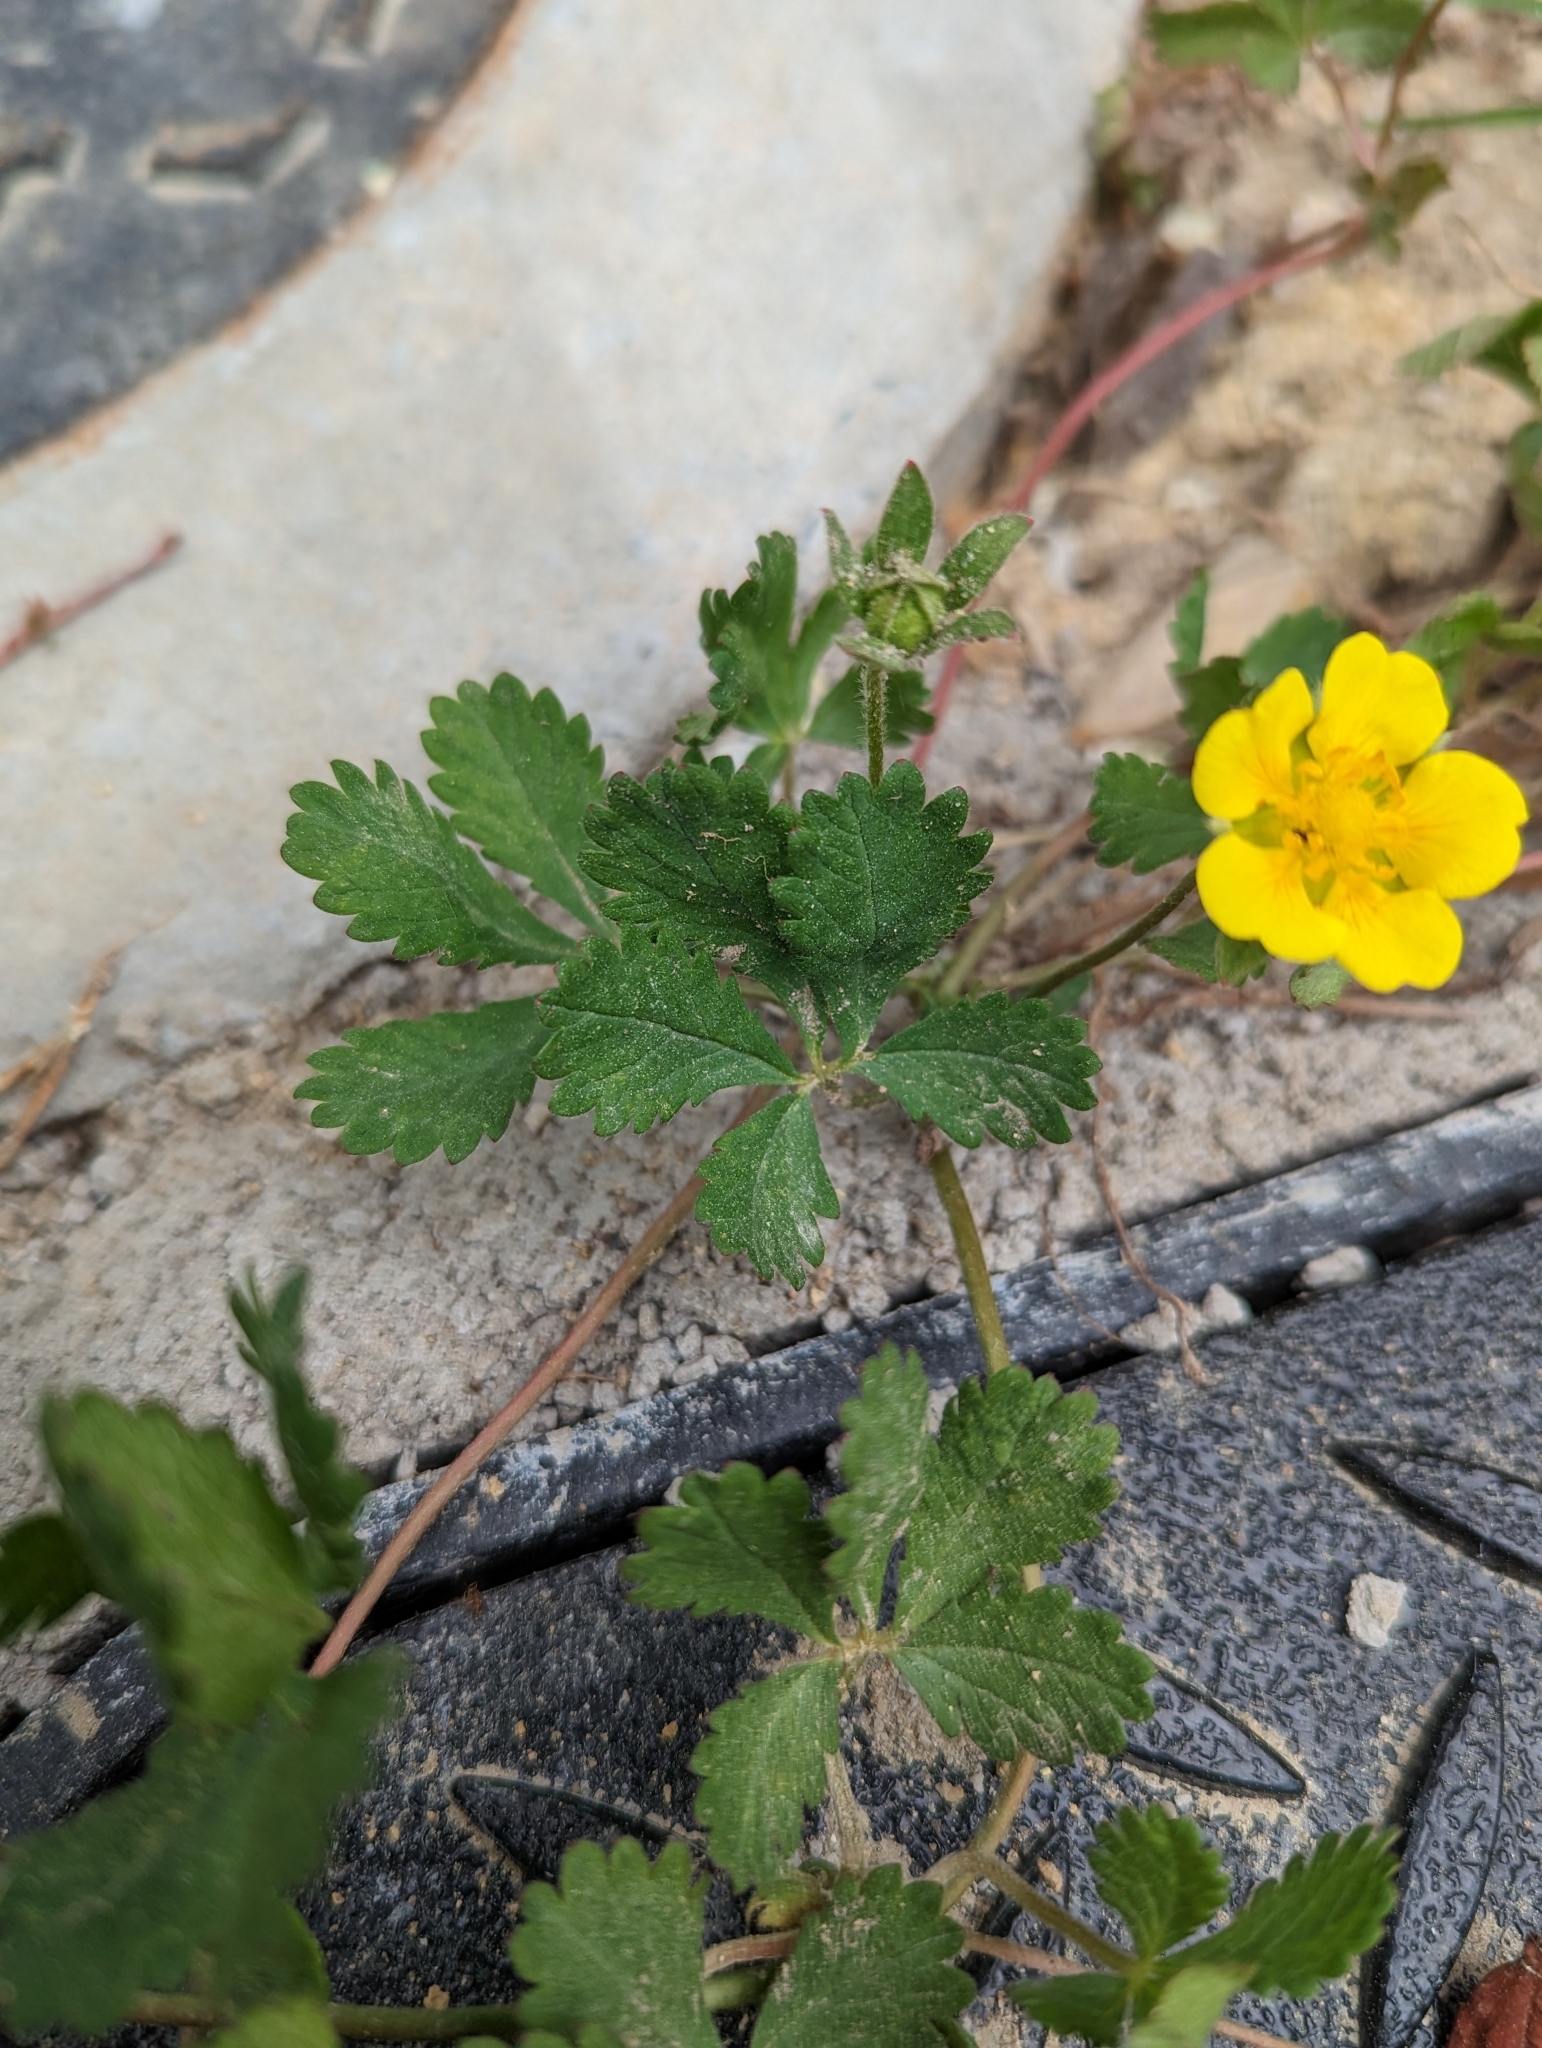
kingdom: Plantae
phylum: Tracheophyta
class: Magnoliopsida
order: Rosales
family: Rosaceae
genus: Potentilla
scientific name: Potentilla reptans
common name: Creeping cinquefoil
